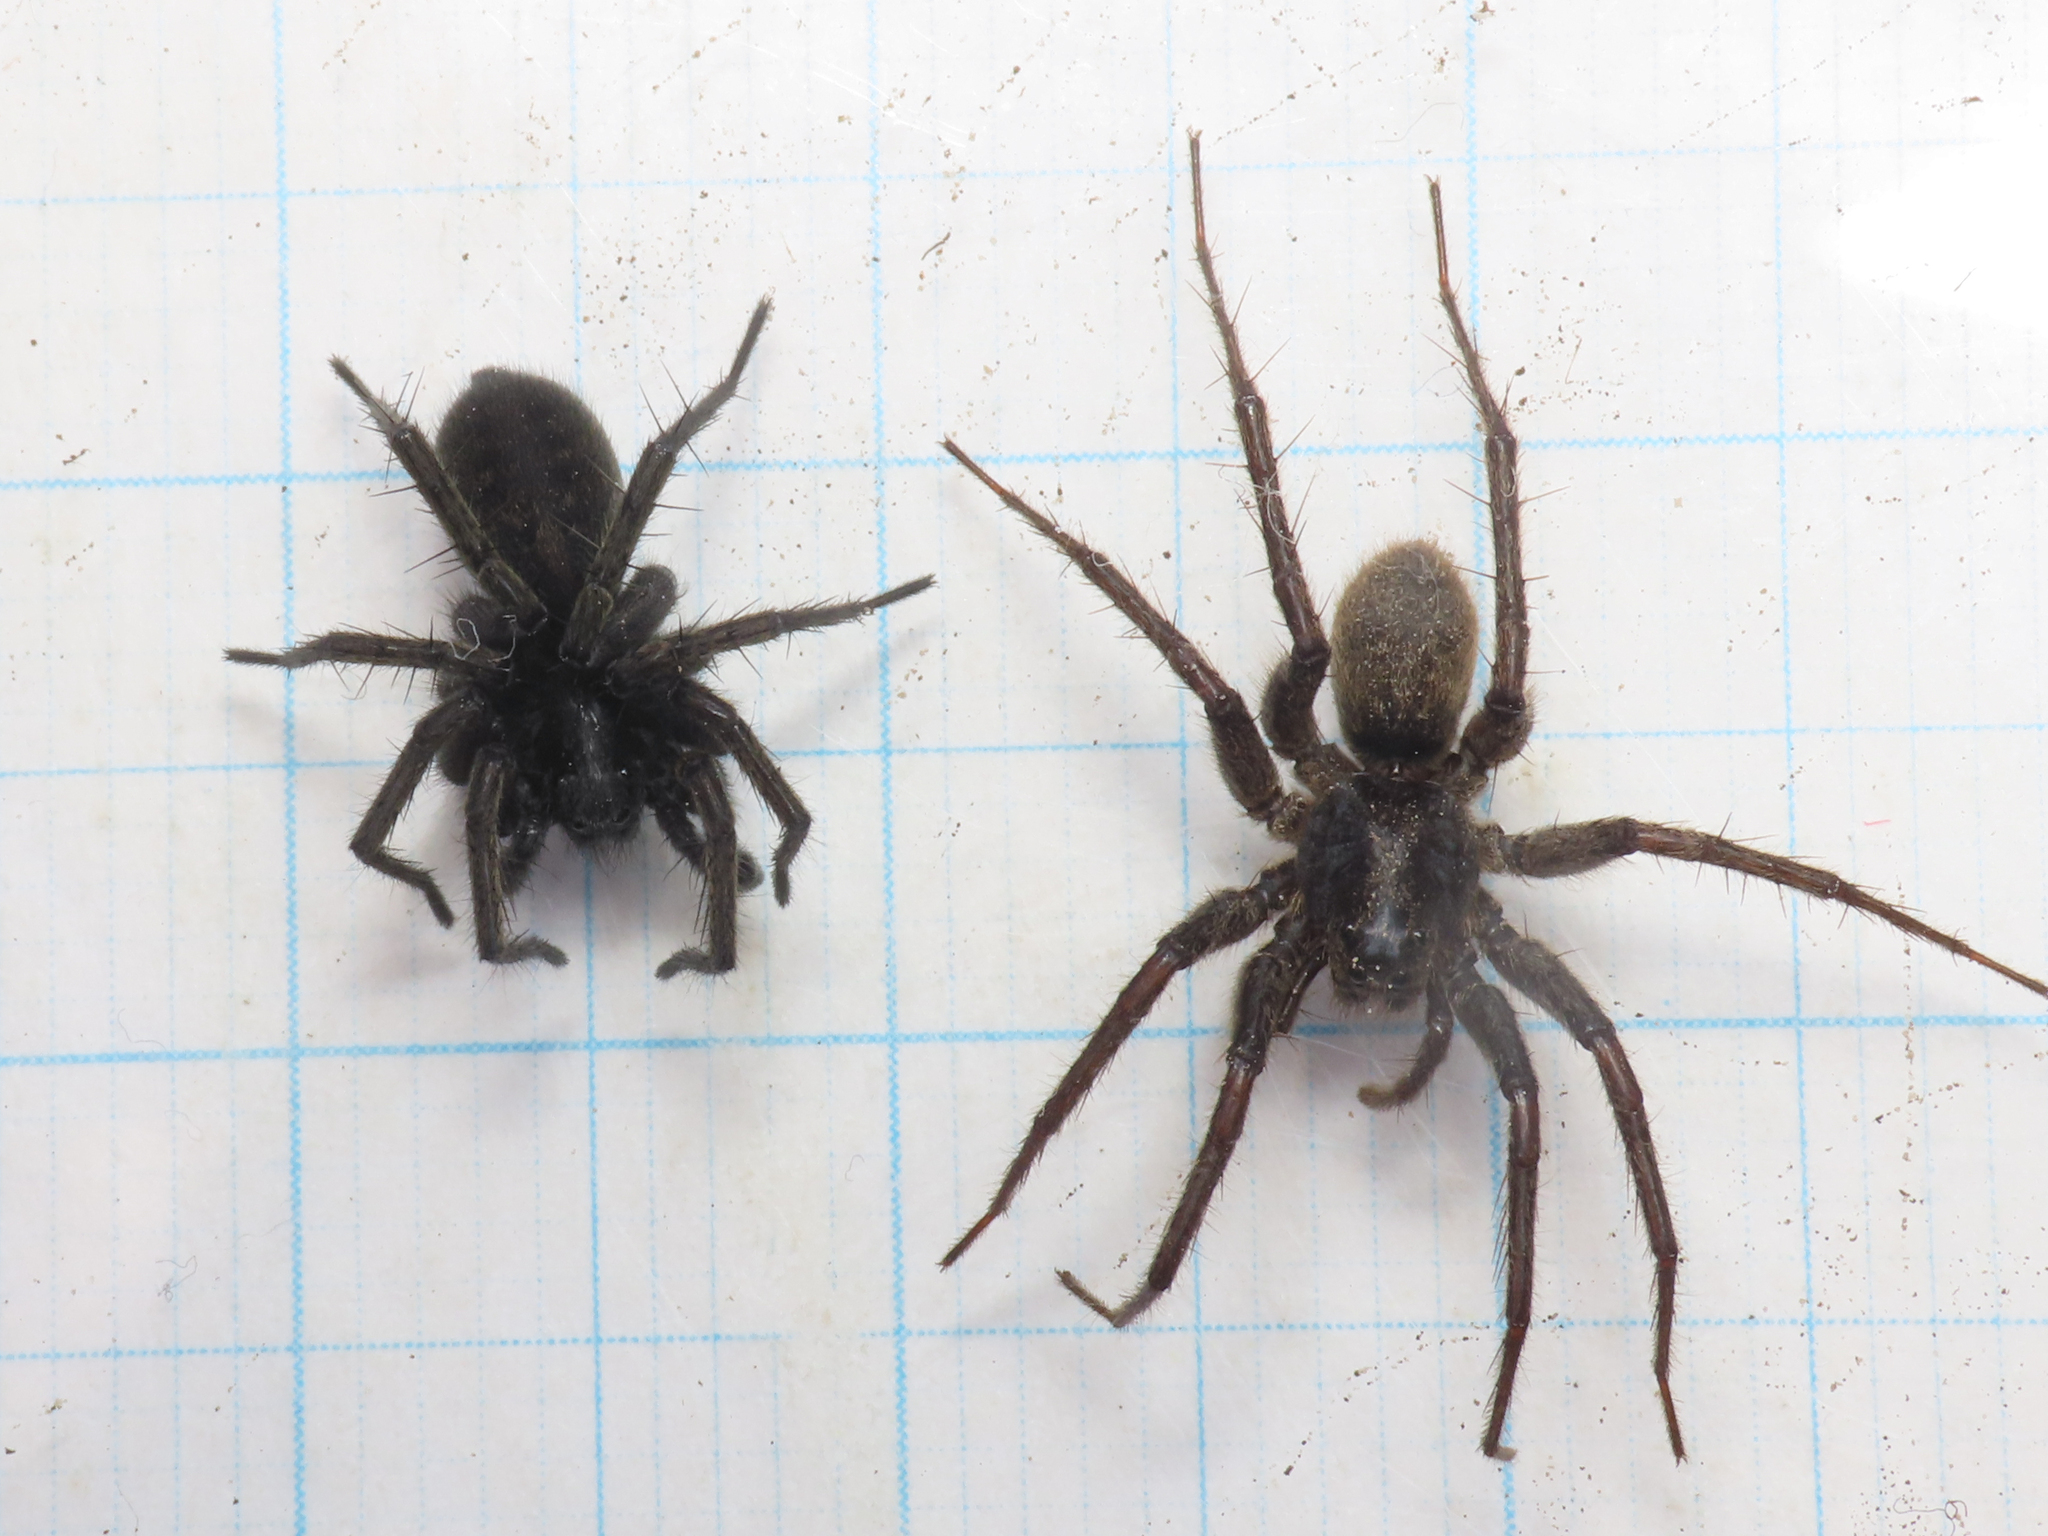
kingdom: Animalia
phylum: Arthropoda
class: Arachnida
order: Araneae
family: Lycosidae
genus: Pardosa
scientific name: Pardosa cavannae
